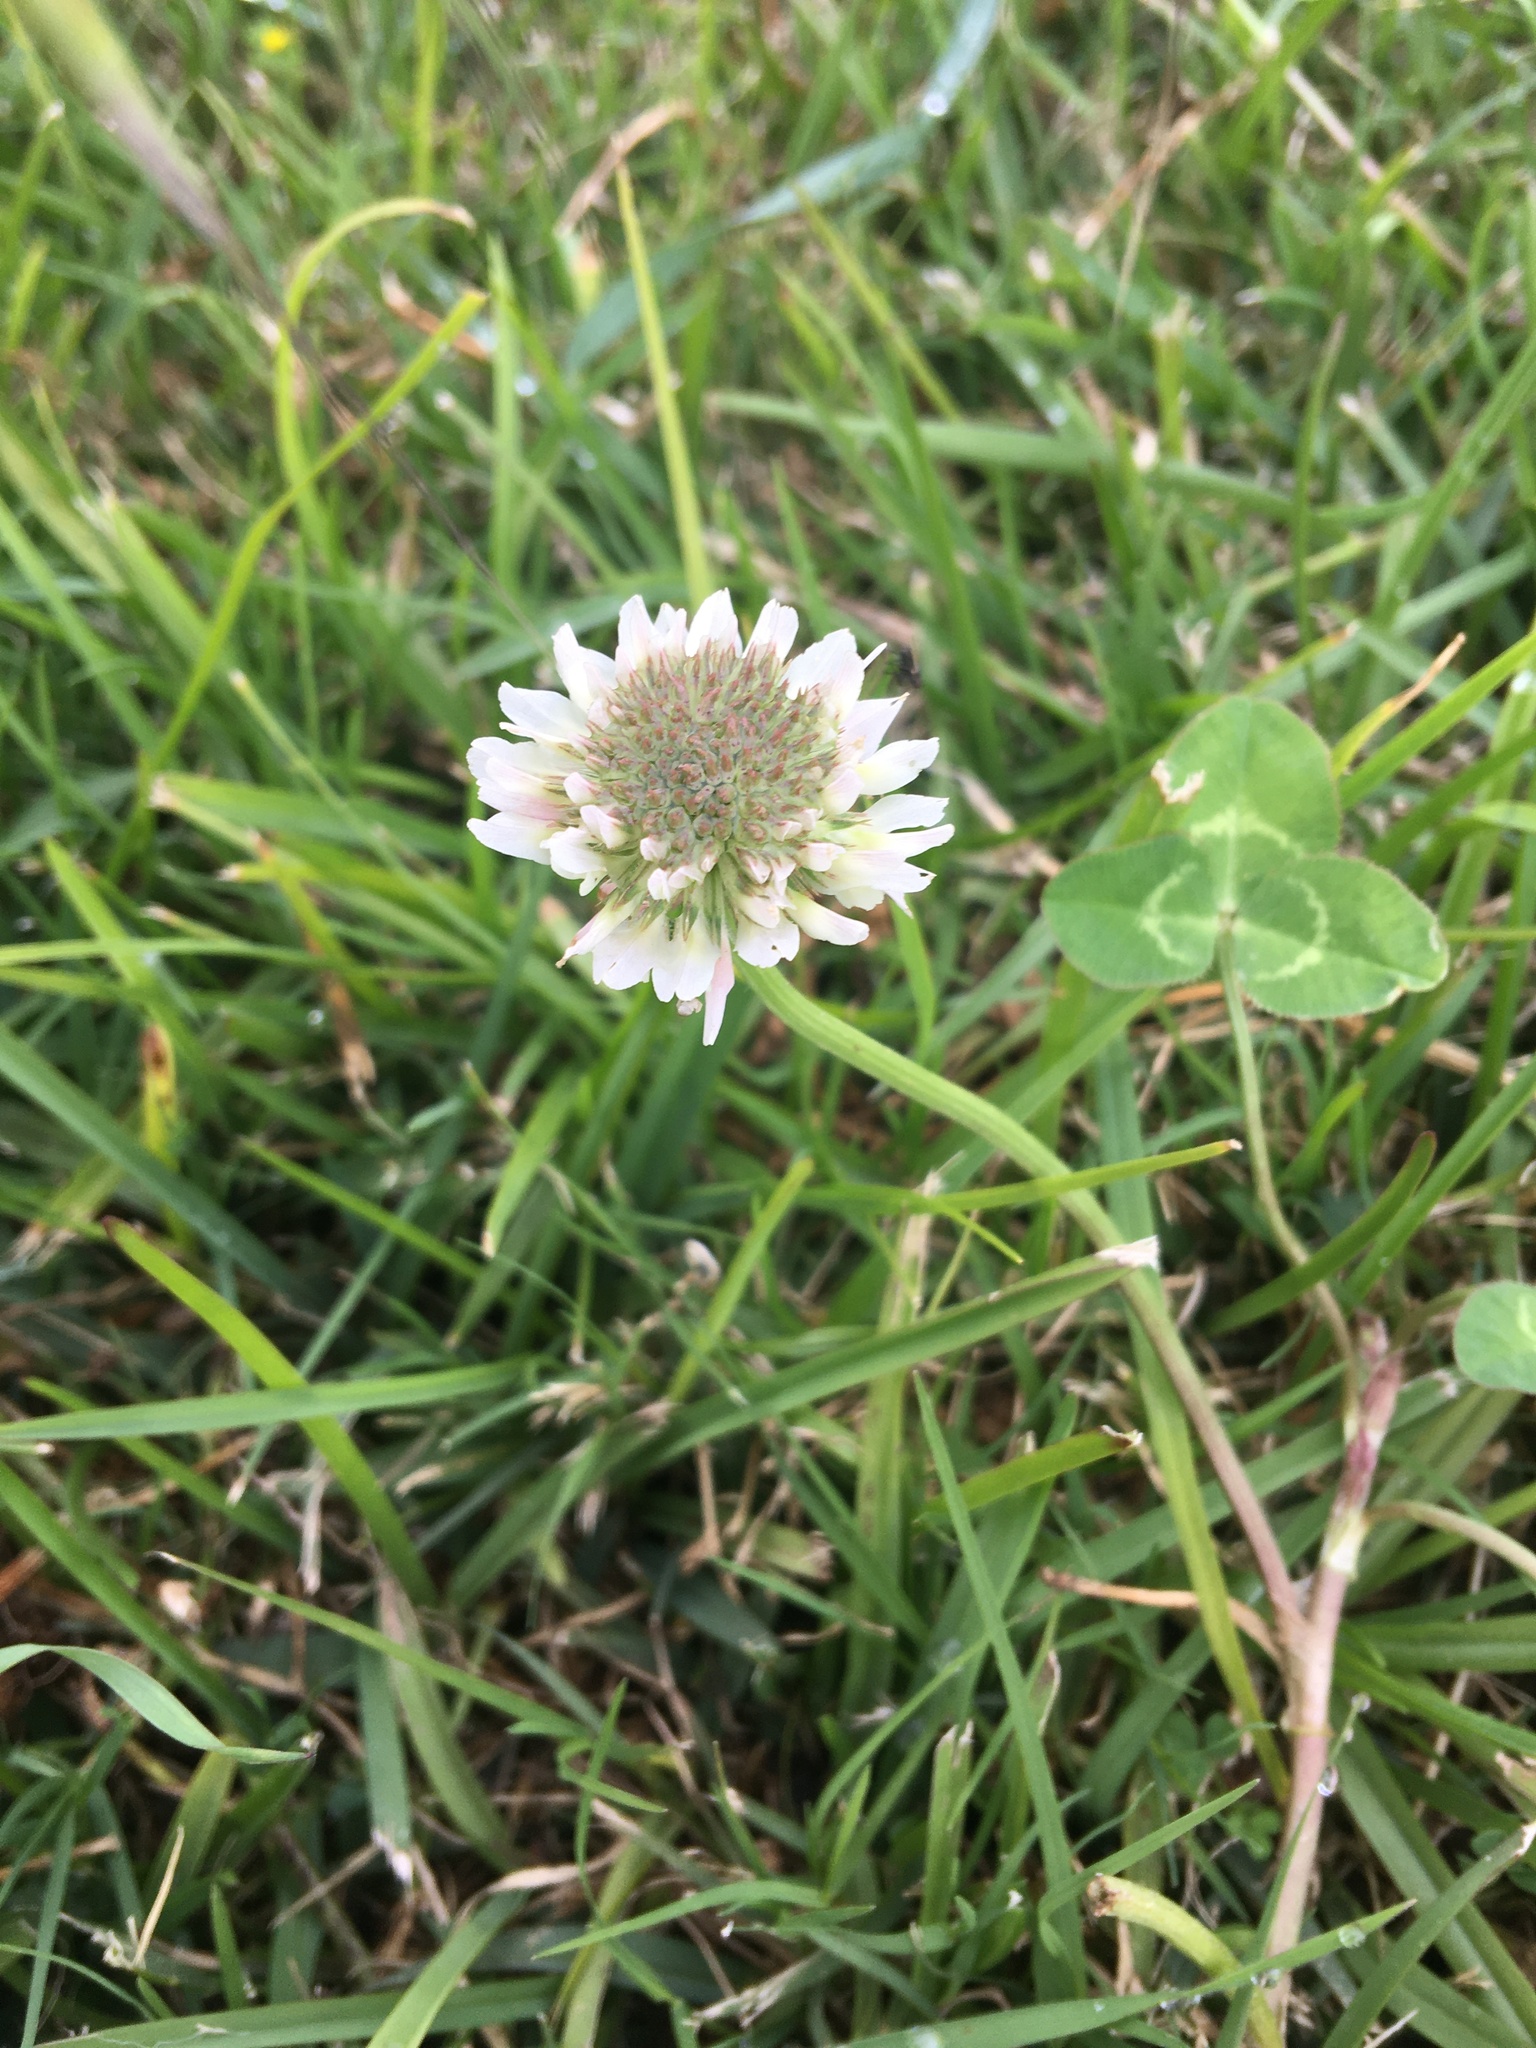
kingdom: Plantae
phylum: Tracheophyta
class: Magnoliopsida
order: Fabales
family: Fabaceae
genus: Trifolium
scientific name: Trifolium repens
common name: White clover
